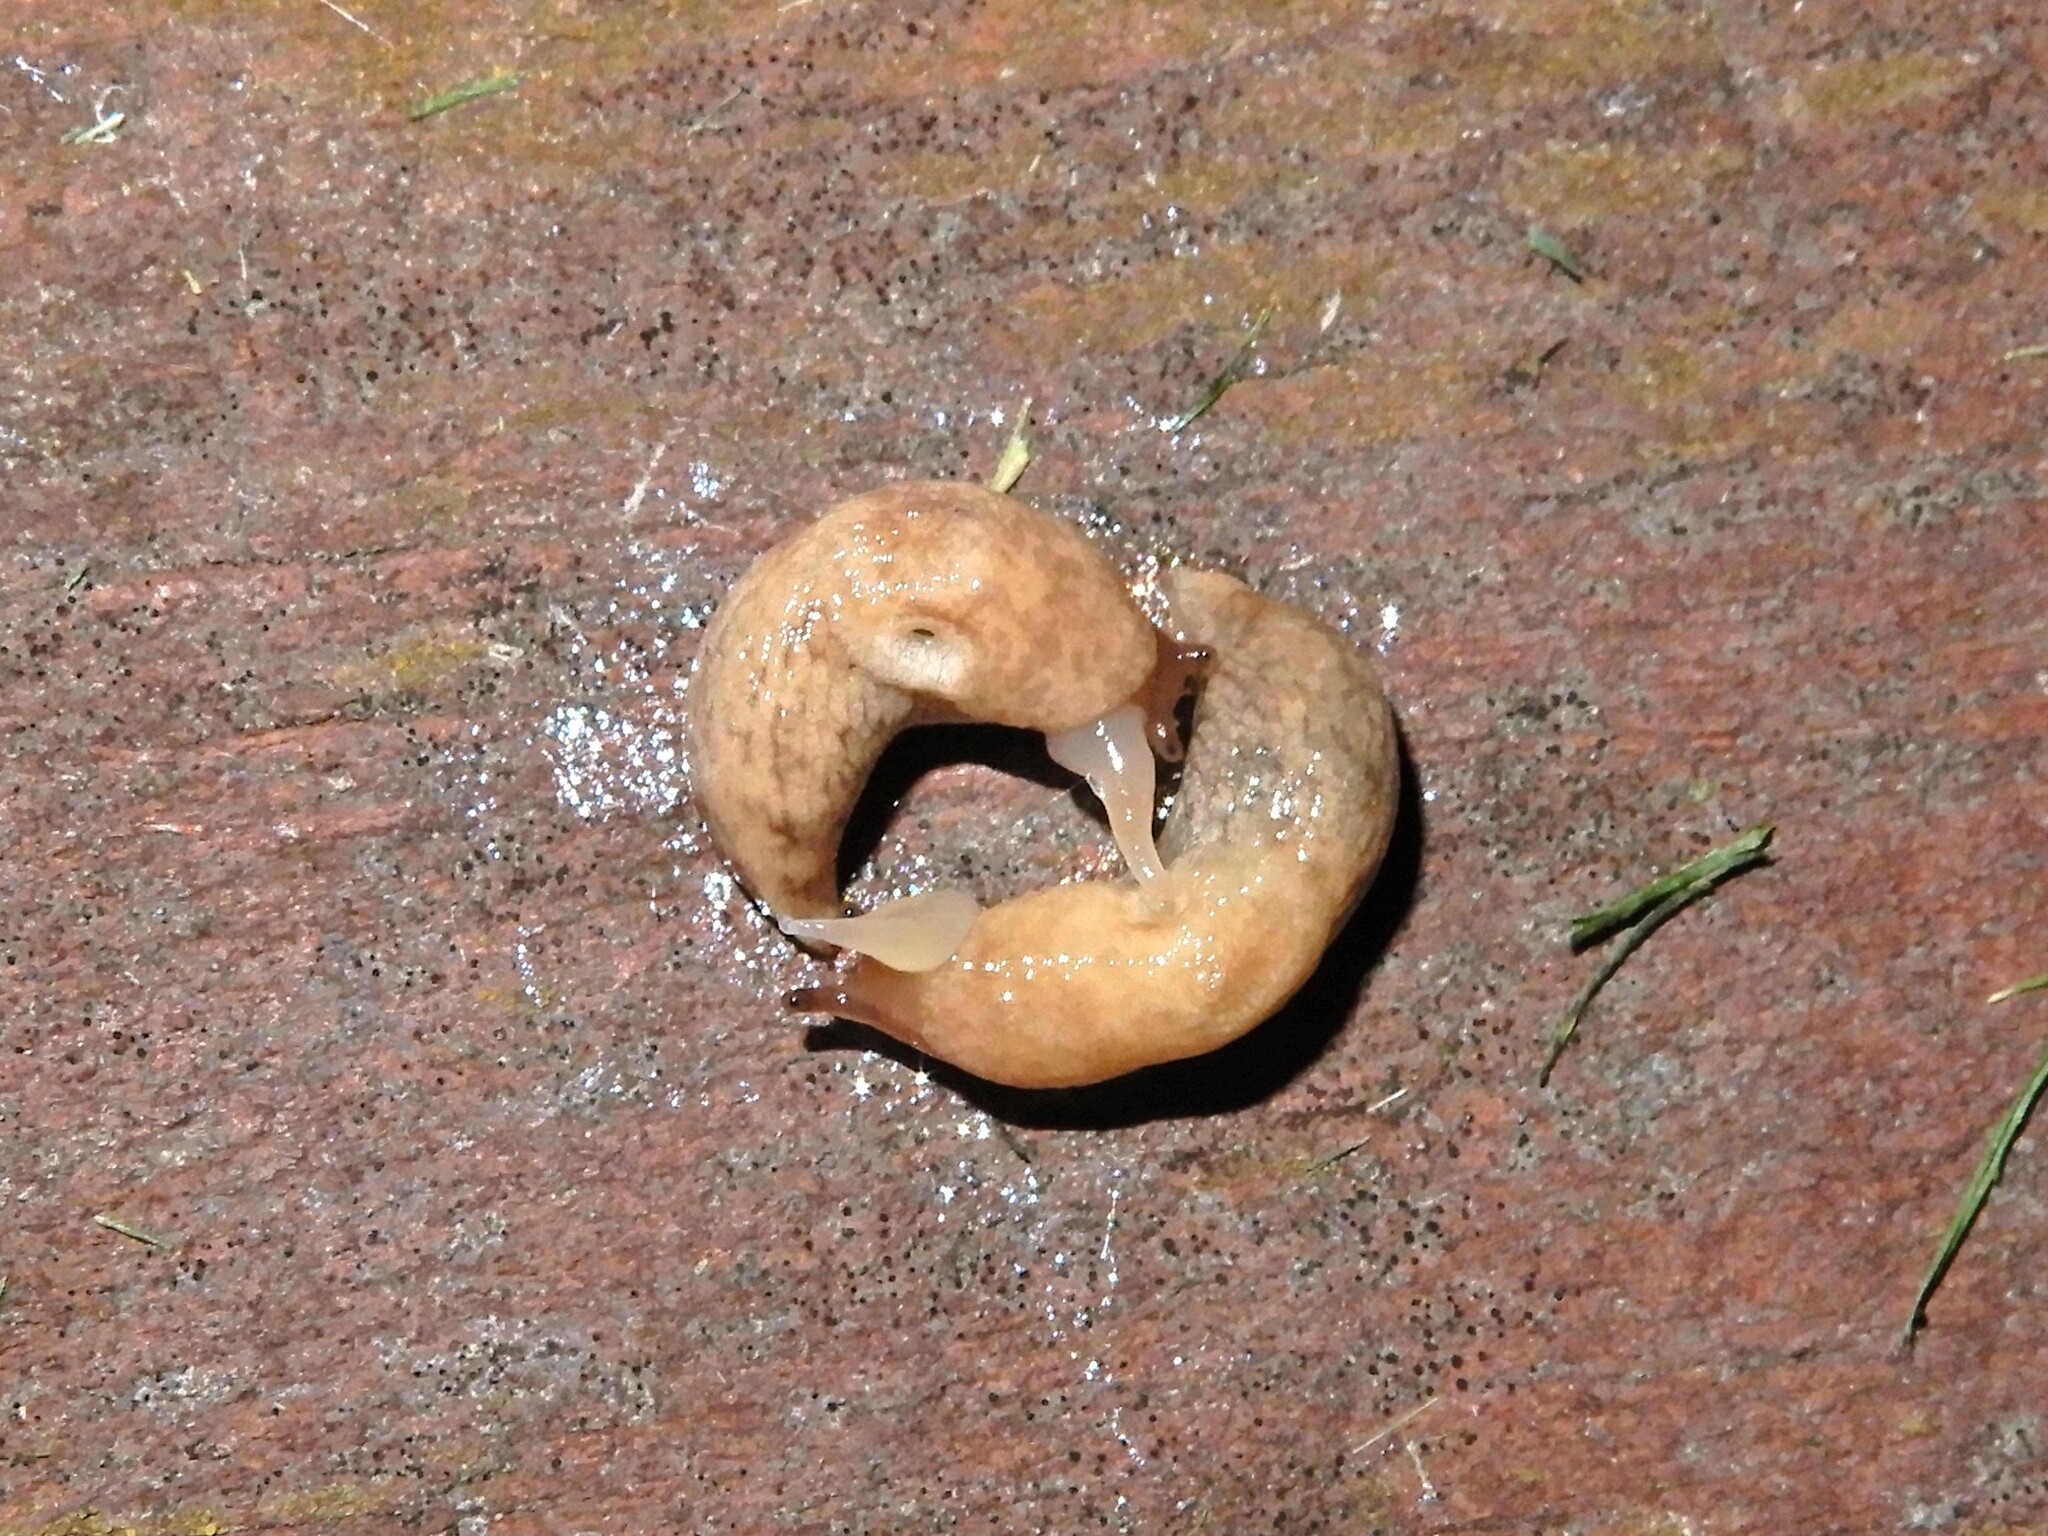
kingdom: Animalia
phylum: Mollusca
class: Gastropoda
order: Stylommatophora
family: Agriolimacidae
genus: Deroceras
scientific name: Deroceras reticulatum
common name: Gray field slug
